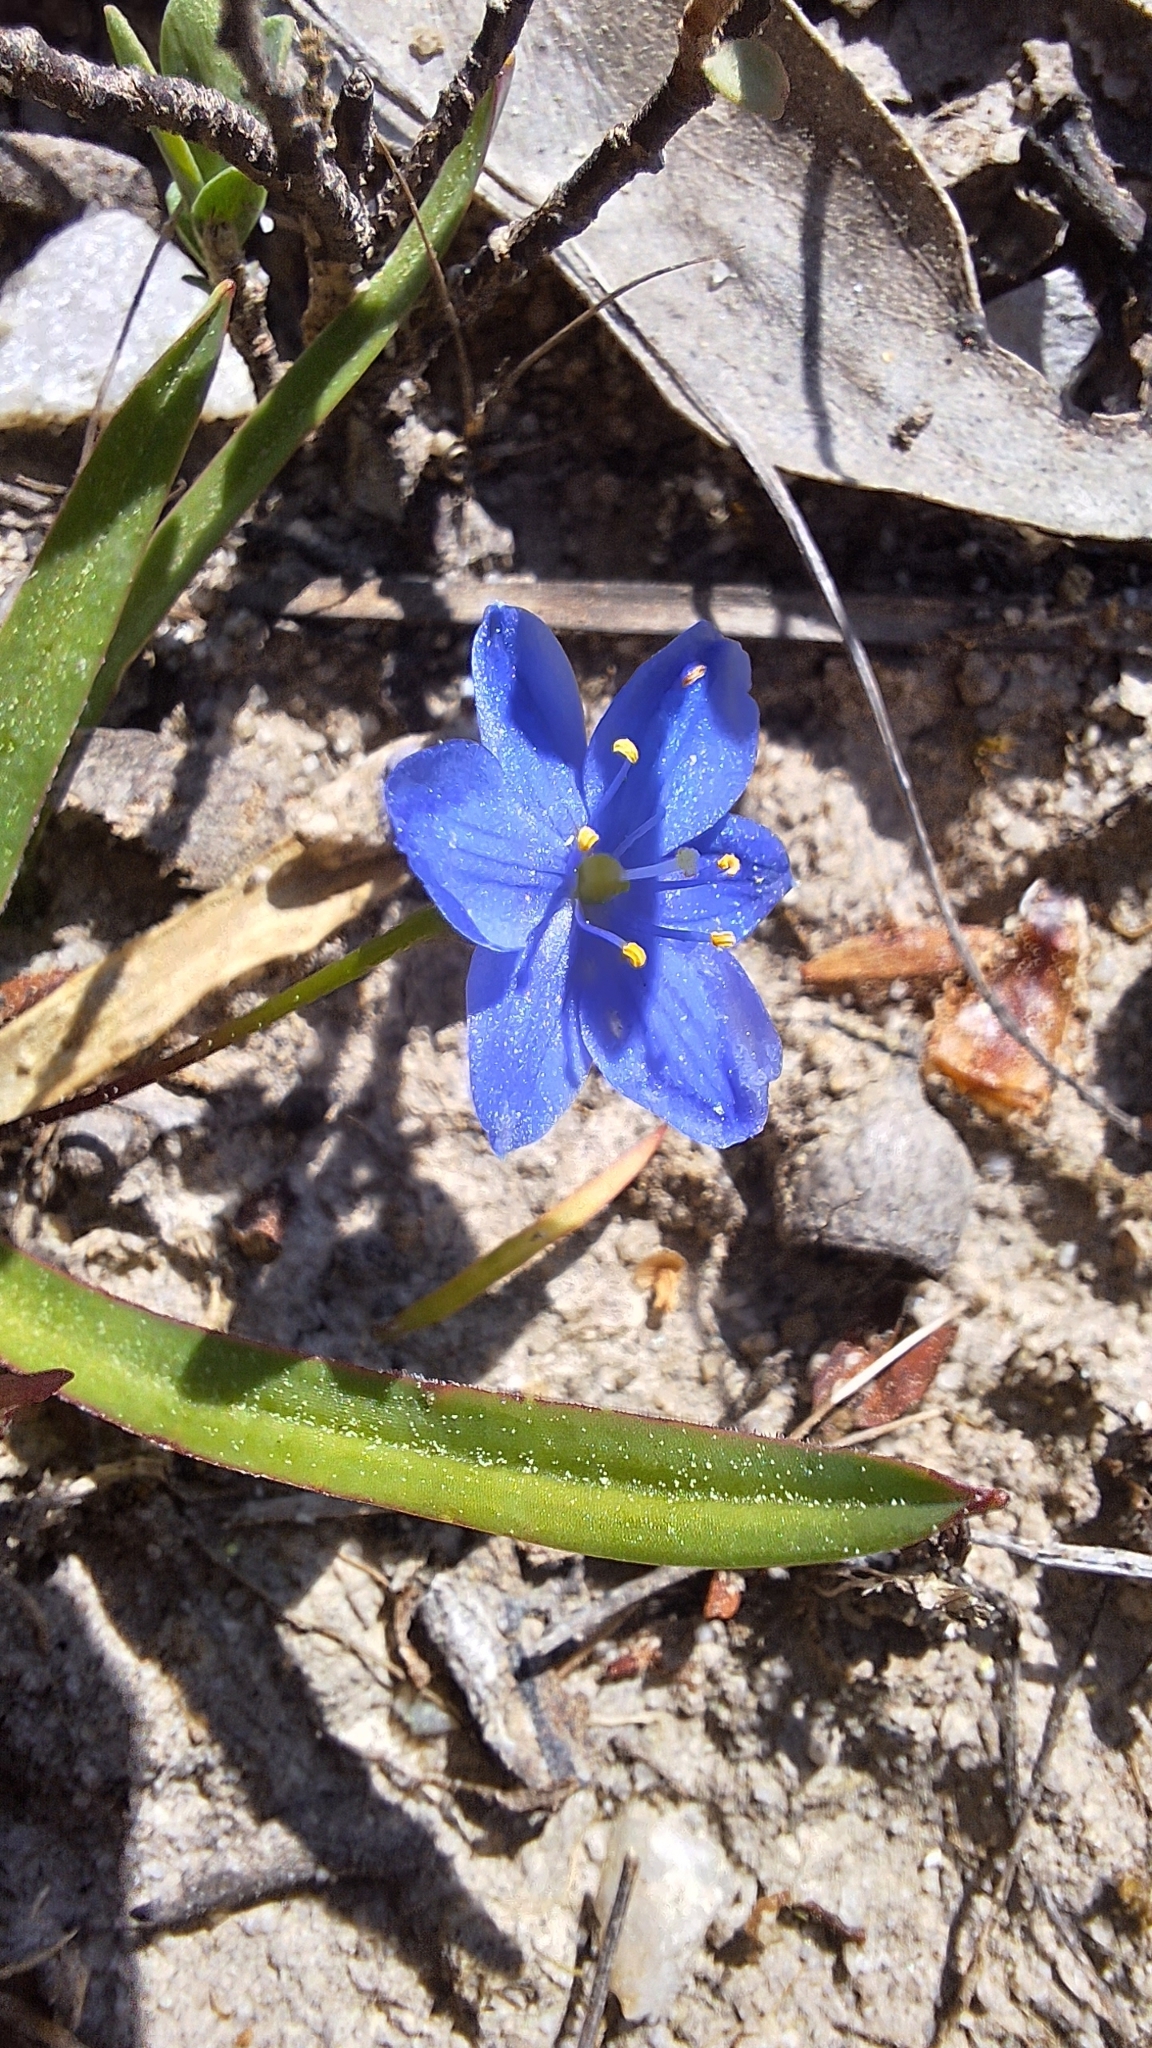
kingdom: Plantae
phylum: Tracheophyta
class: Liliopsida
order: Asparagales
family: Asphodelaceae
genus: Chamaescilla
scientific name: Chamaescilla corymbosa
